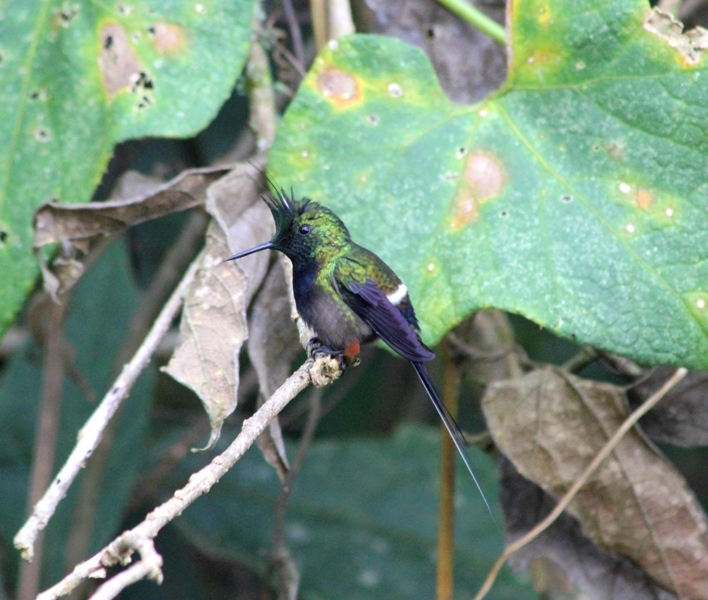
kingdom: Animalia
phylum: Chordata
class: Aves
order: Apodiformes
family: Trochilidae
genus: Discosura
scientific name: Discosura popelairii
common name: Wire-crested thorntail
